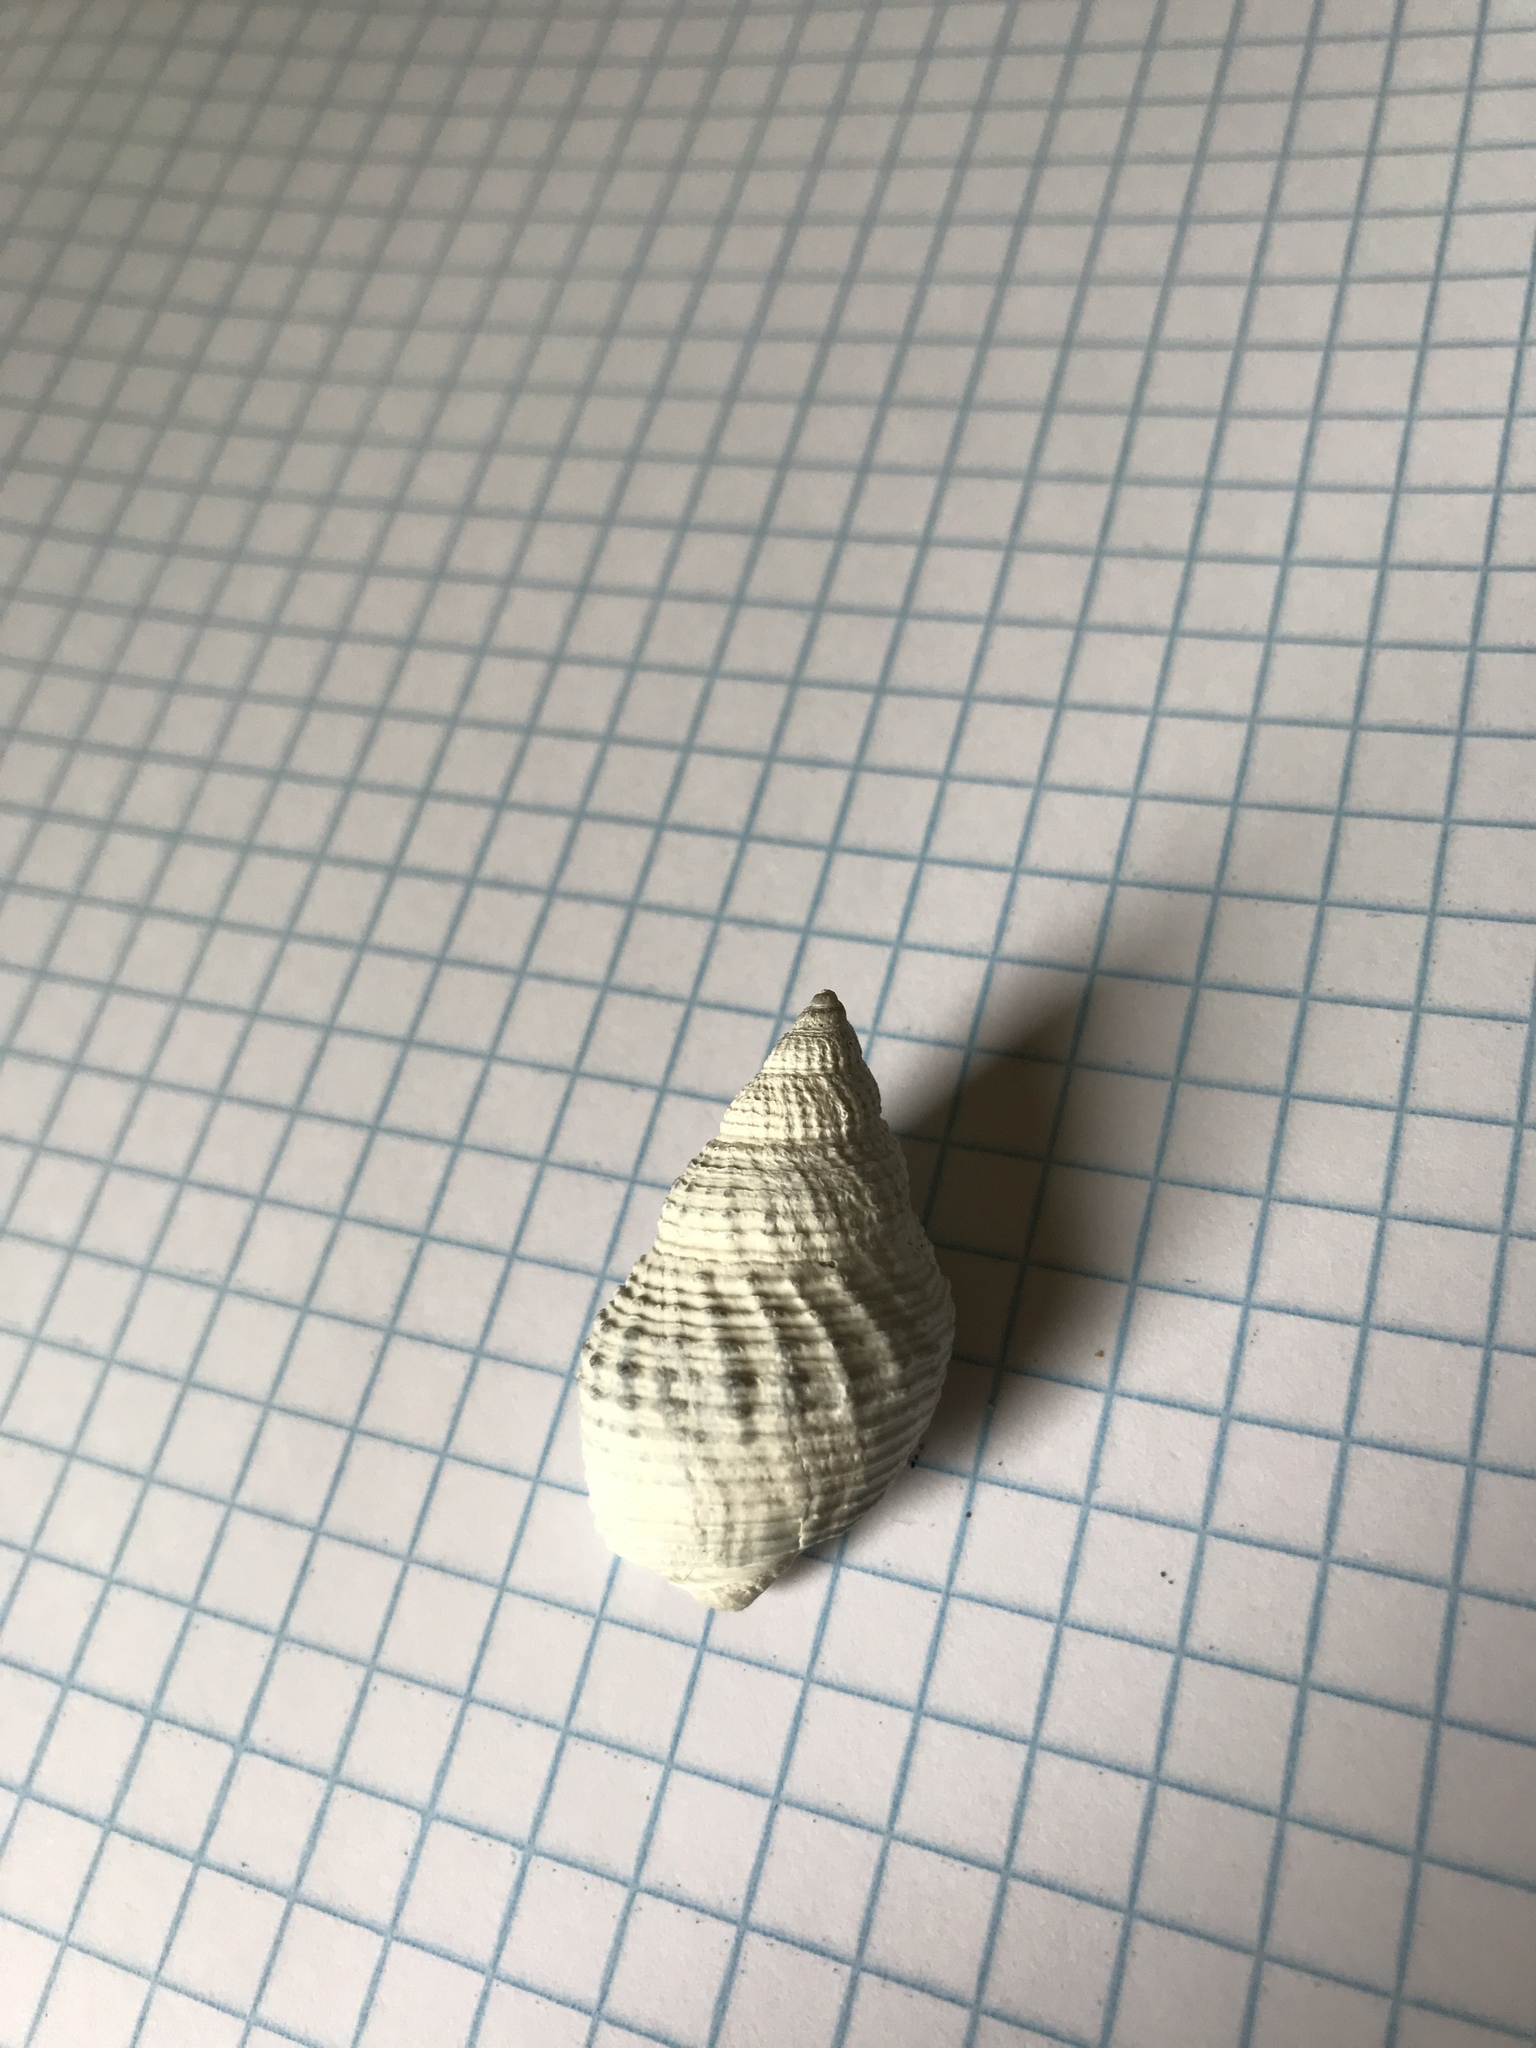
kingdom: Animalia
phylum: Mollusca
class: Gastropoda
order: Neogastropoda
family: Nassariidae
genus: Caesia
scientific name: Caesia fossata
